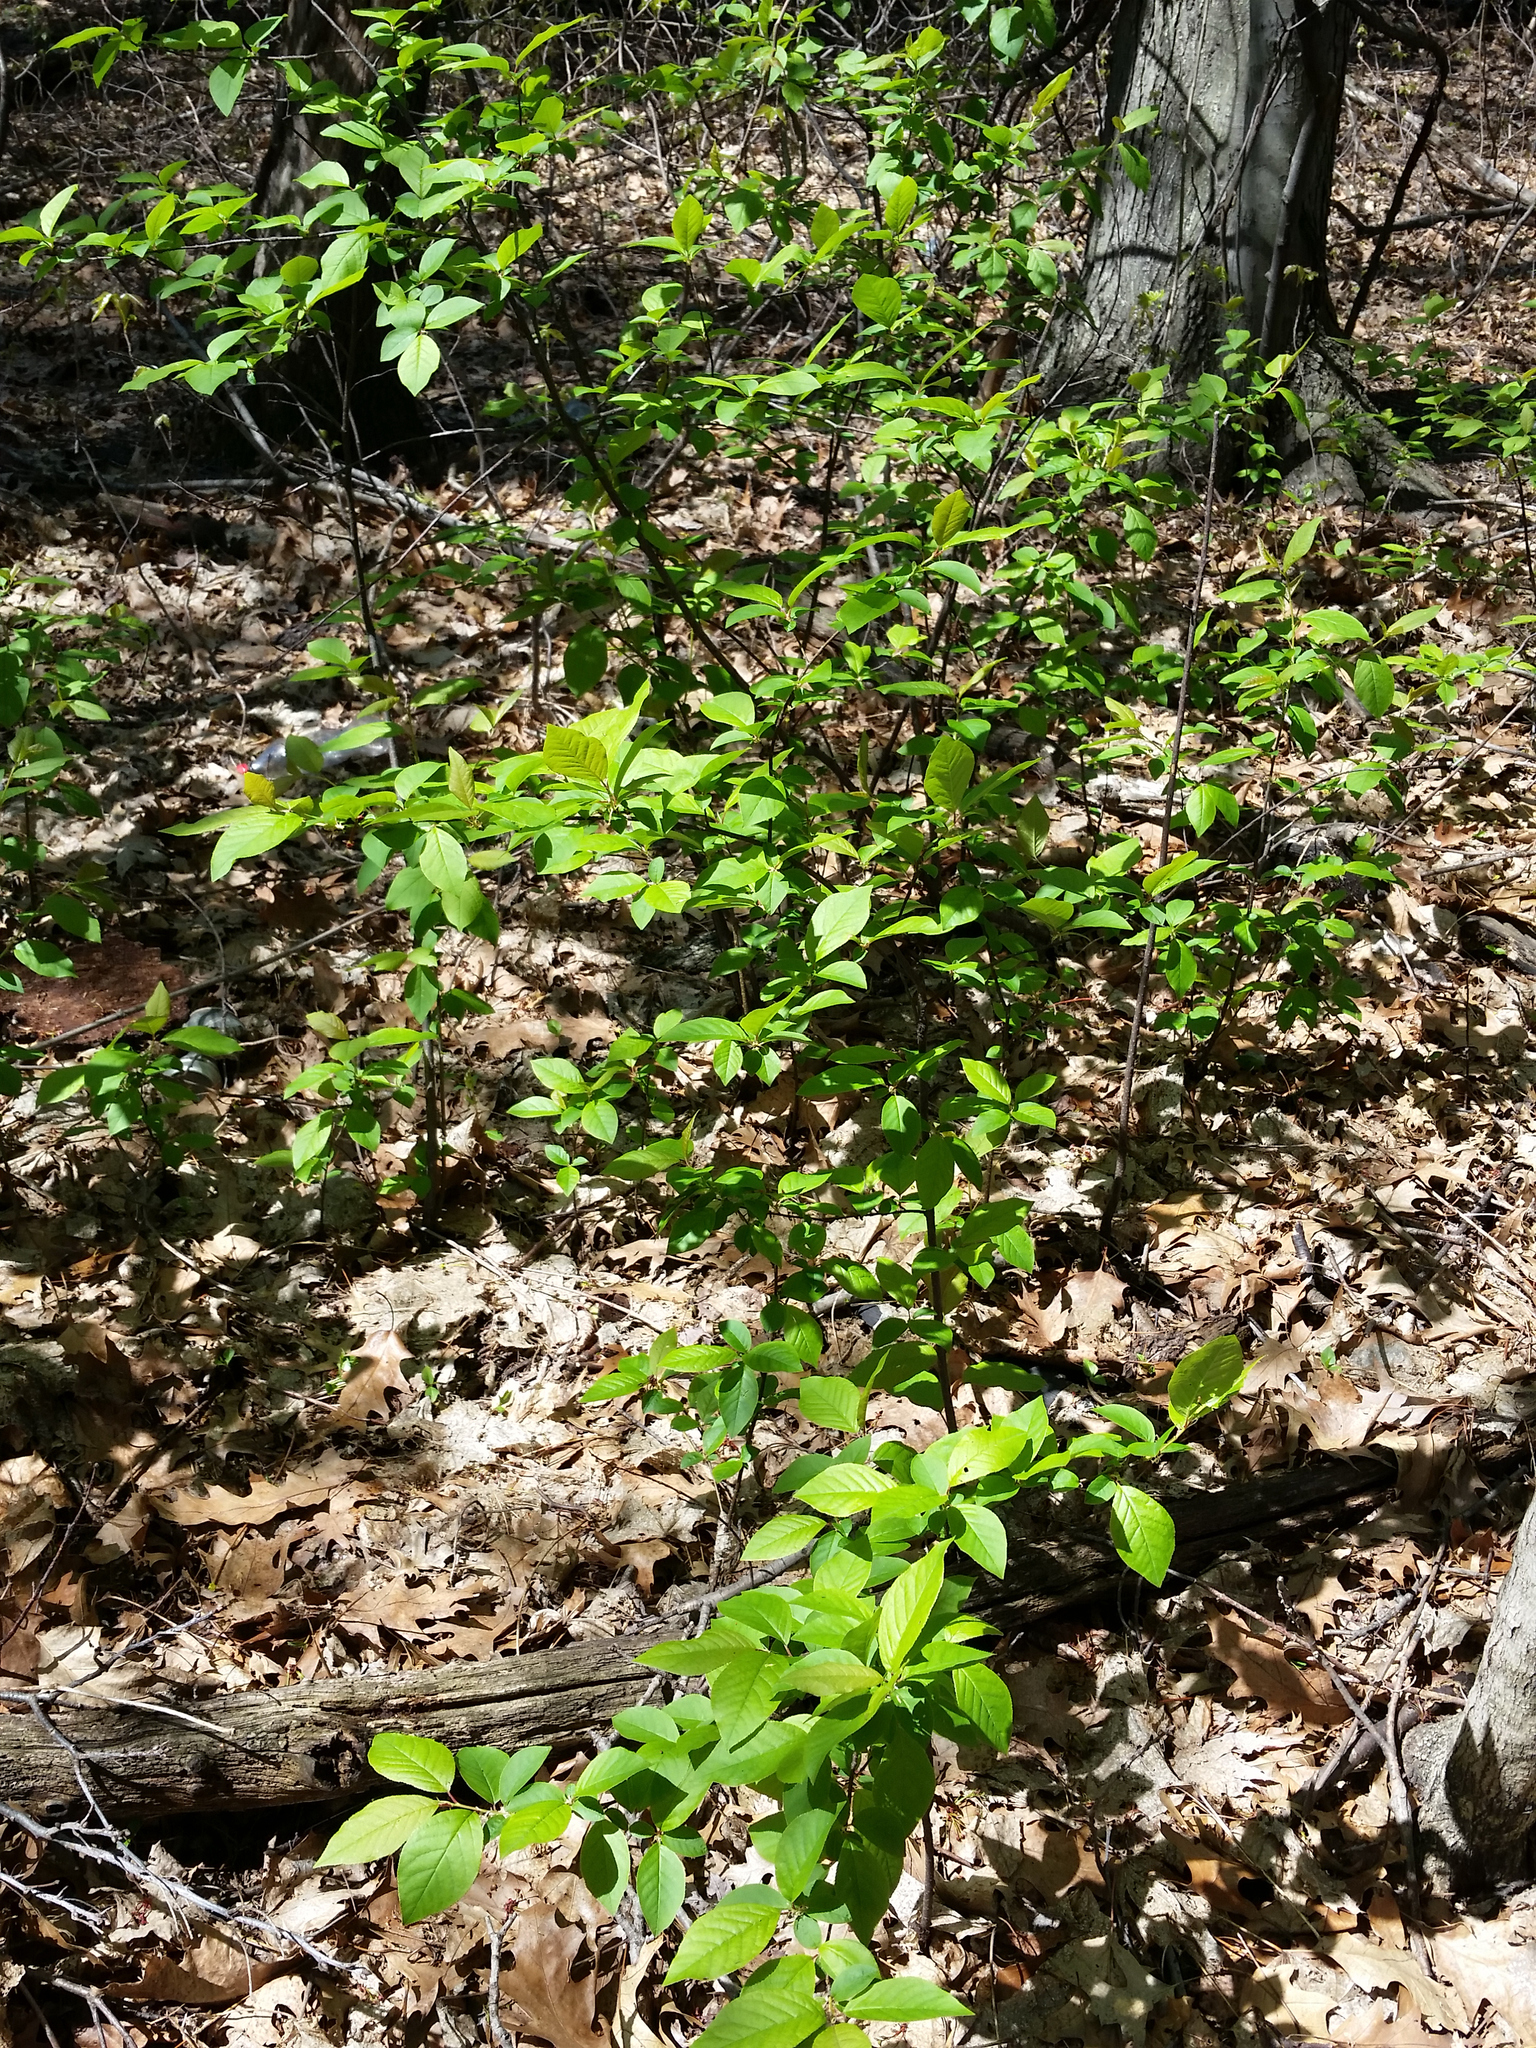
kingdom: Plantae
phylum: Tracheophyta
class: Magnoliopsida
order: Rosales
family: Rosaceae
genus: Prunus
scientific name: Prunus virginiana
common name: Chokecherry
